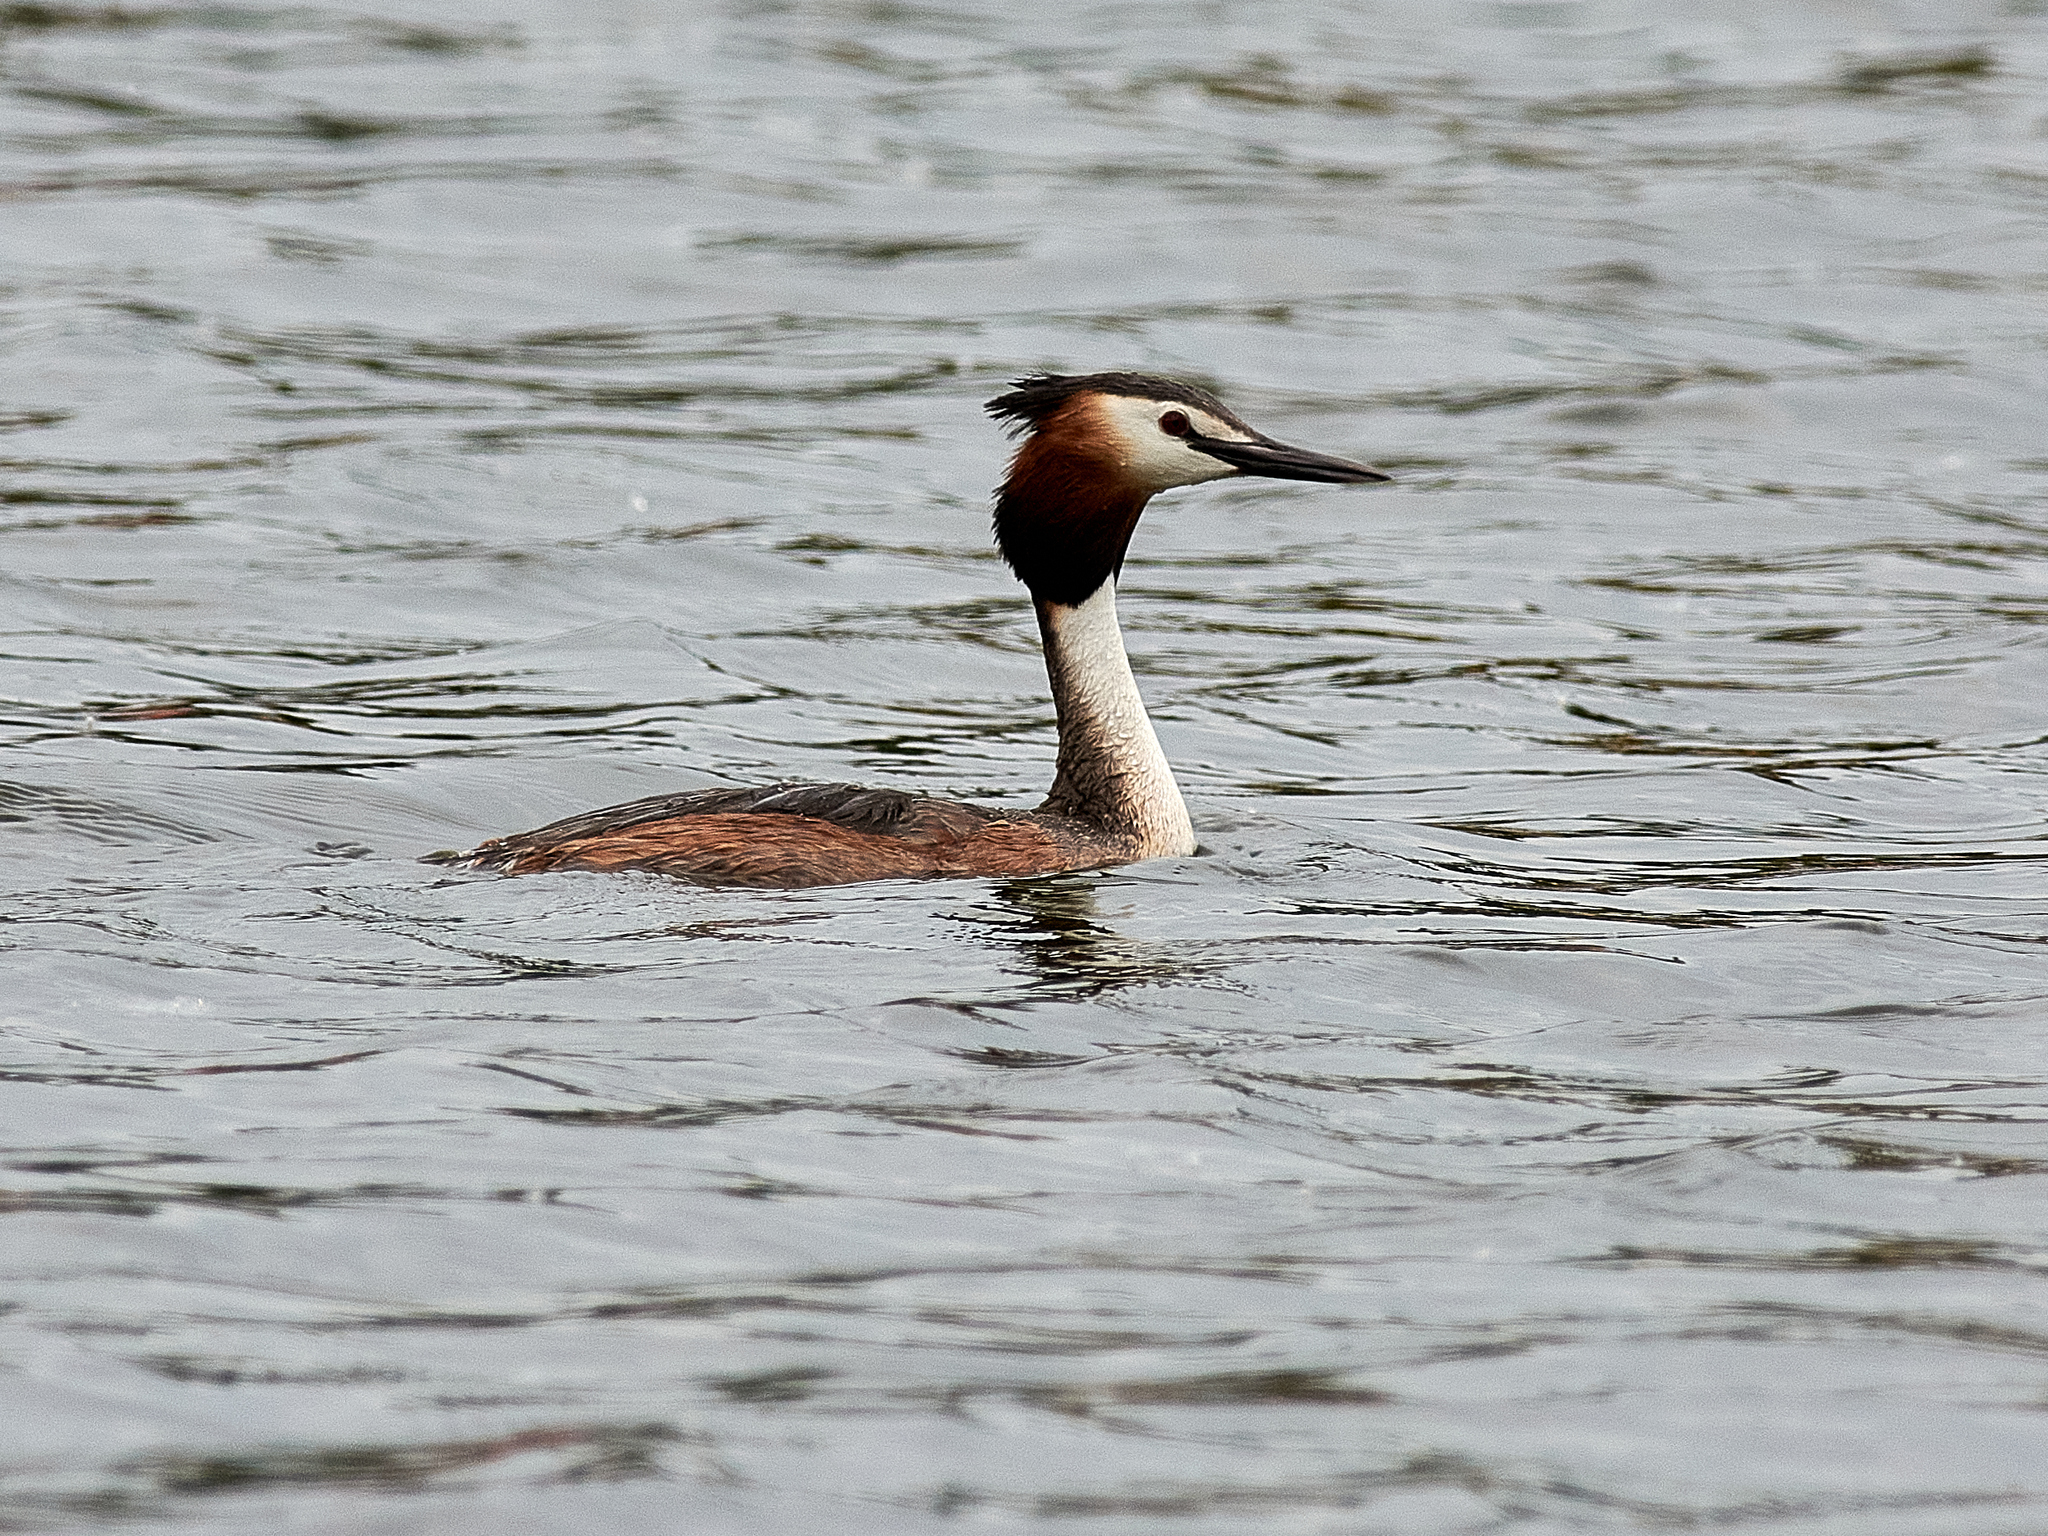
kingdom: Animalia
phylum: Chordata
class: Aves
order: Podicipediformes
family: Podicipedidae
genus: Podiceps
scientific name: Podiceps cristatus
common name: Great crested grebe
